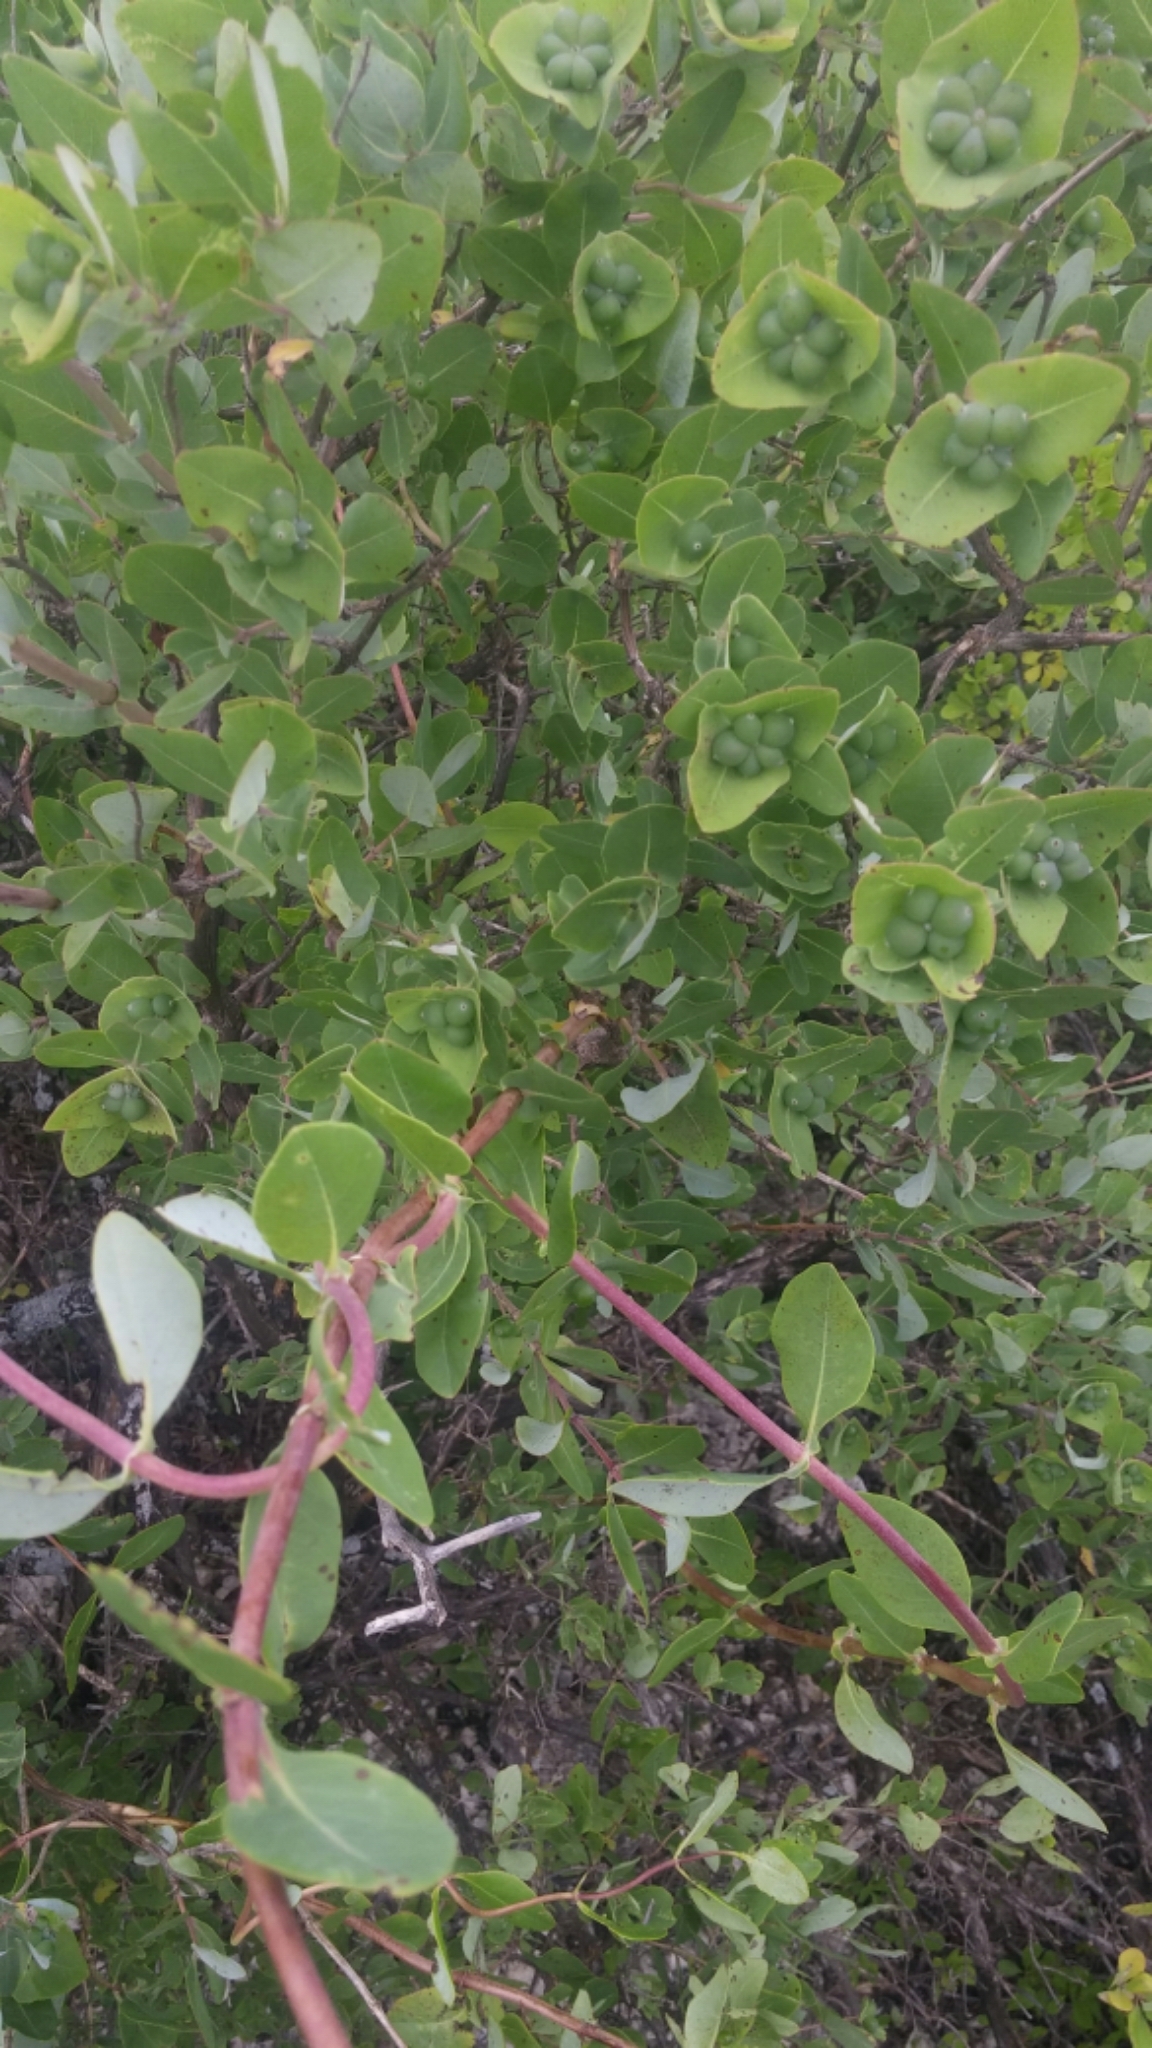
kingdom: Plantae
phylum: Tracheophyta
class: Magnoliopsida
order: Dipsacales
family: Caprifoliaceae
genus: Lonicera
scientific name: Lonicera albiflora
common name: White honeysuckle
